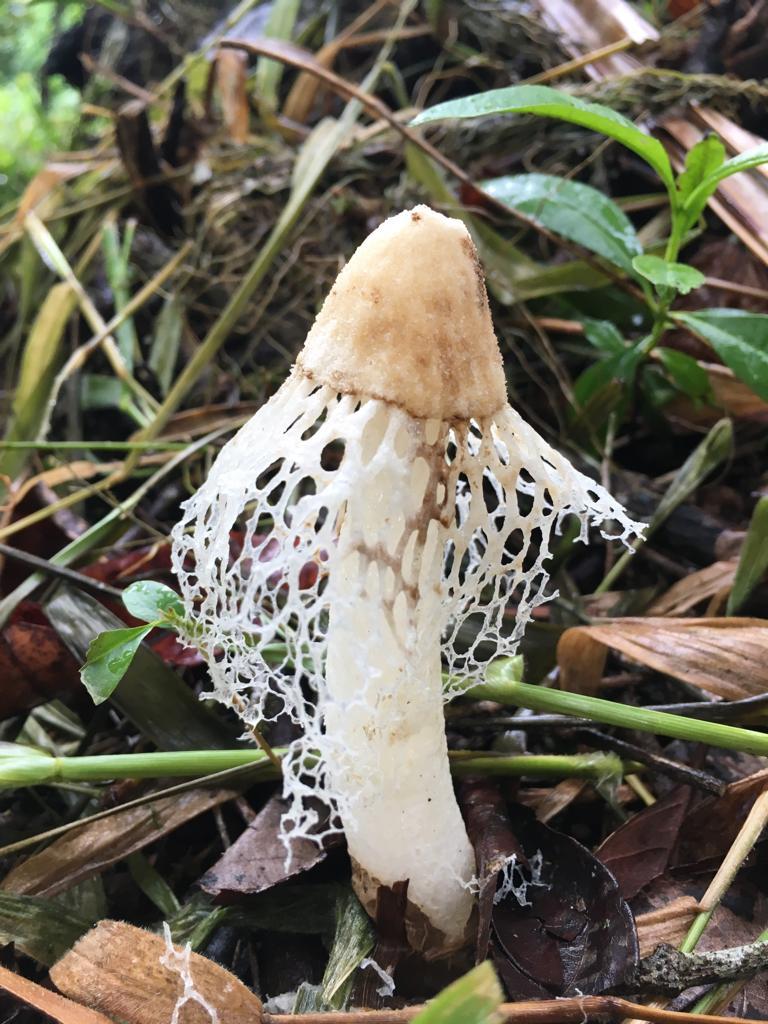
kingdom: Fungi
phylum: Basidiomycota
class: Agaricomycetes
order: Phallales
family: Phallaceae
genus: Phallus
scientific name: Phallus merulinus
